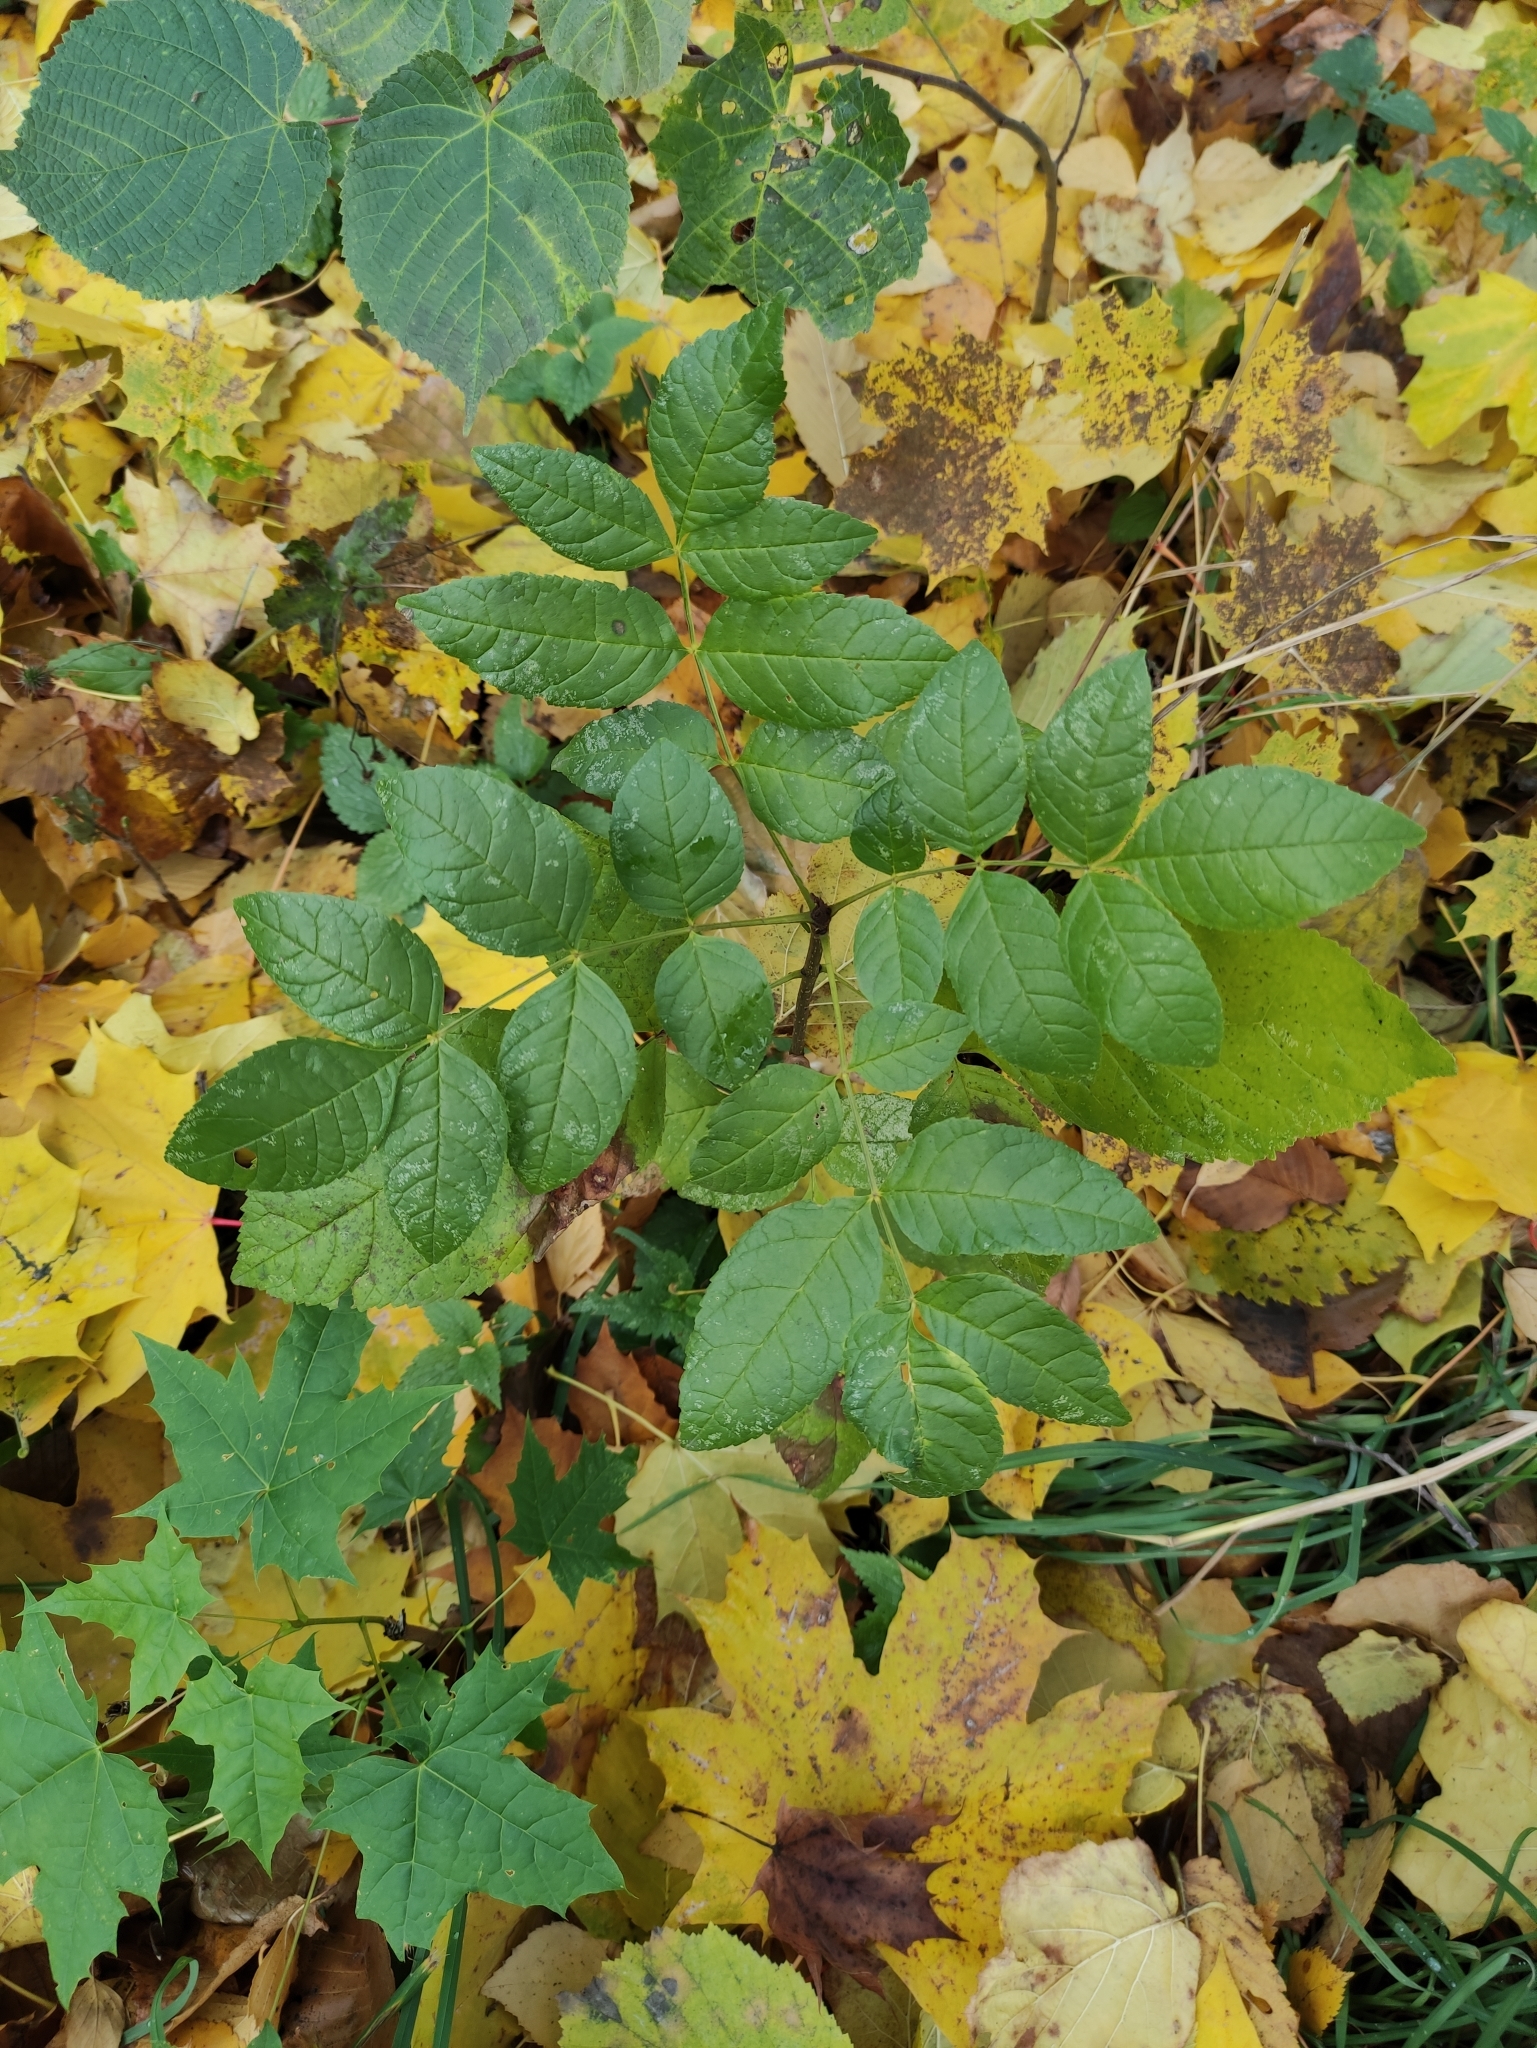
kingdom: Plantae
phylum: Tracheophyta
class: Magnoliopsida
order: Lamiales
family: Oleaceae
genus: Fraxinus
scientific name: Fraxinus pennsylvanica
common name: Green ash
